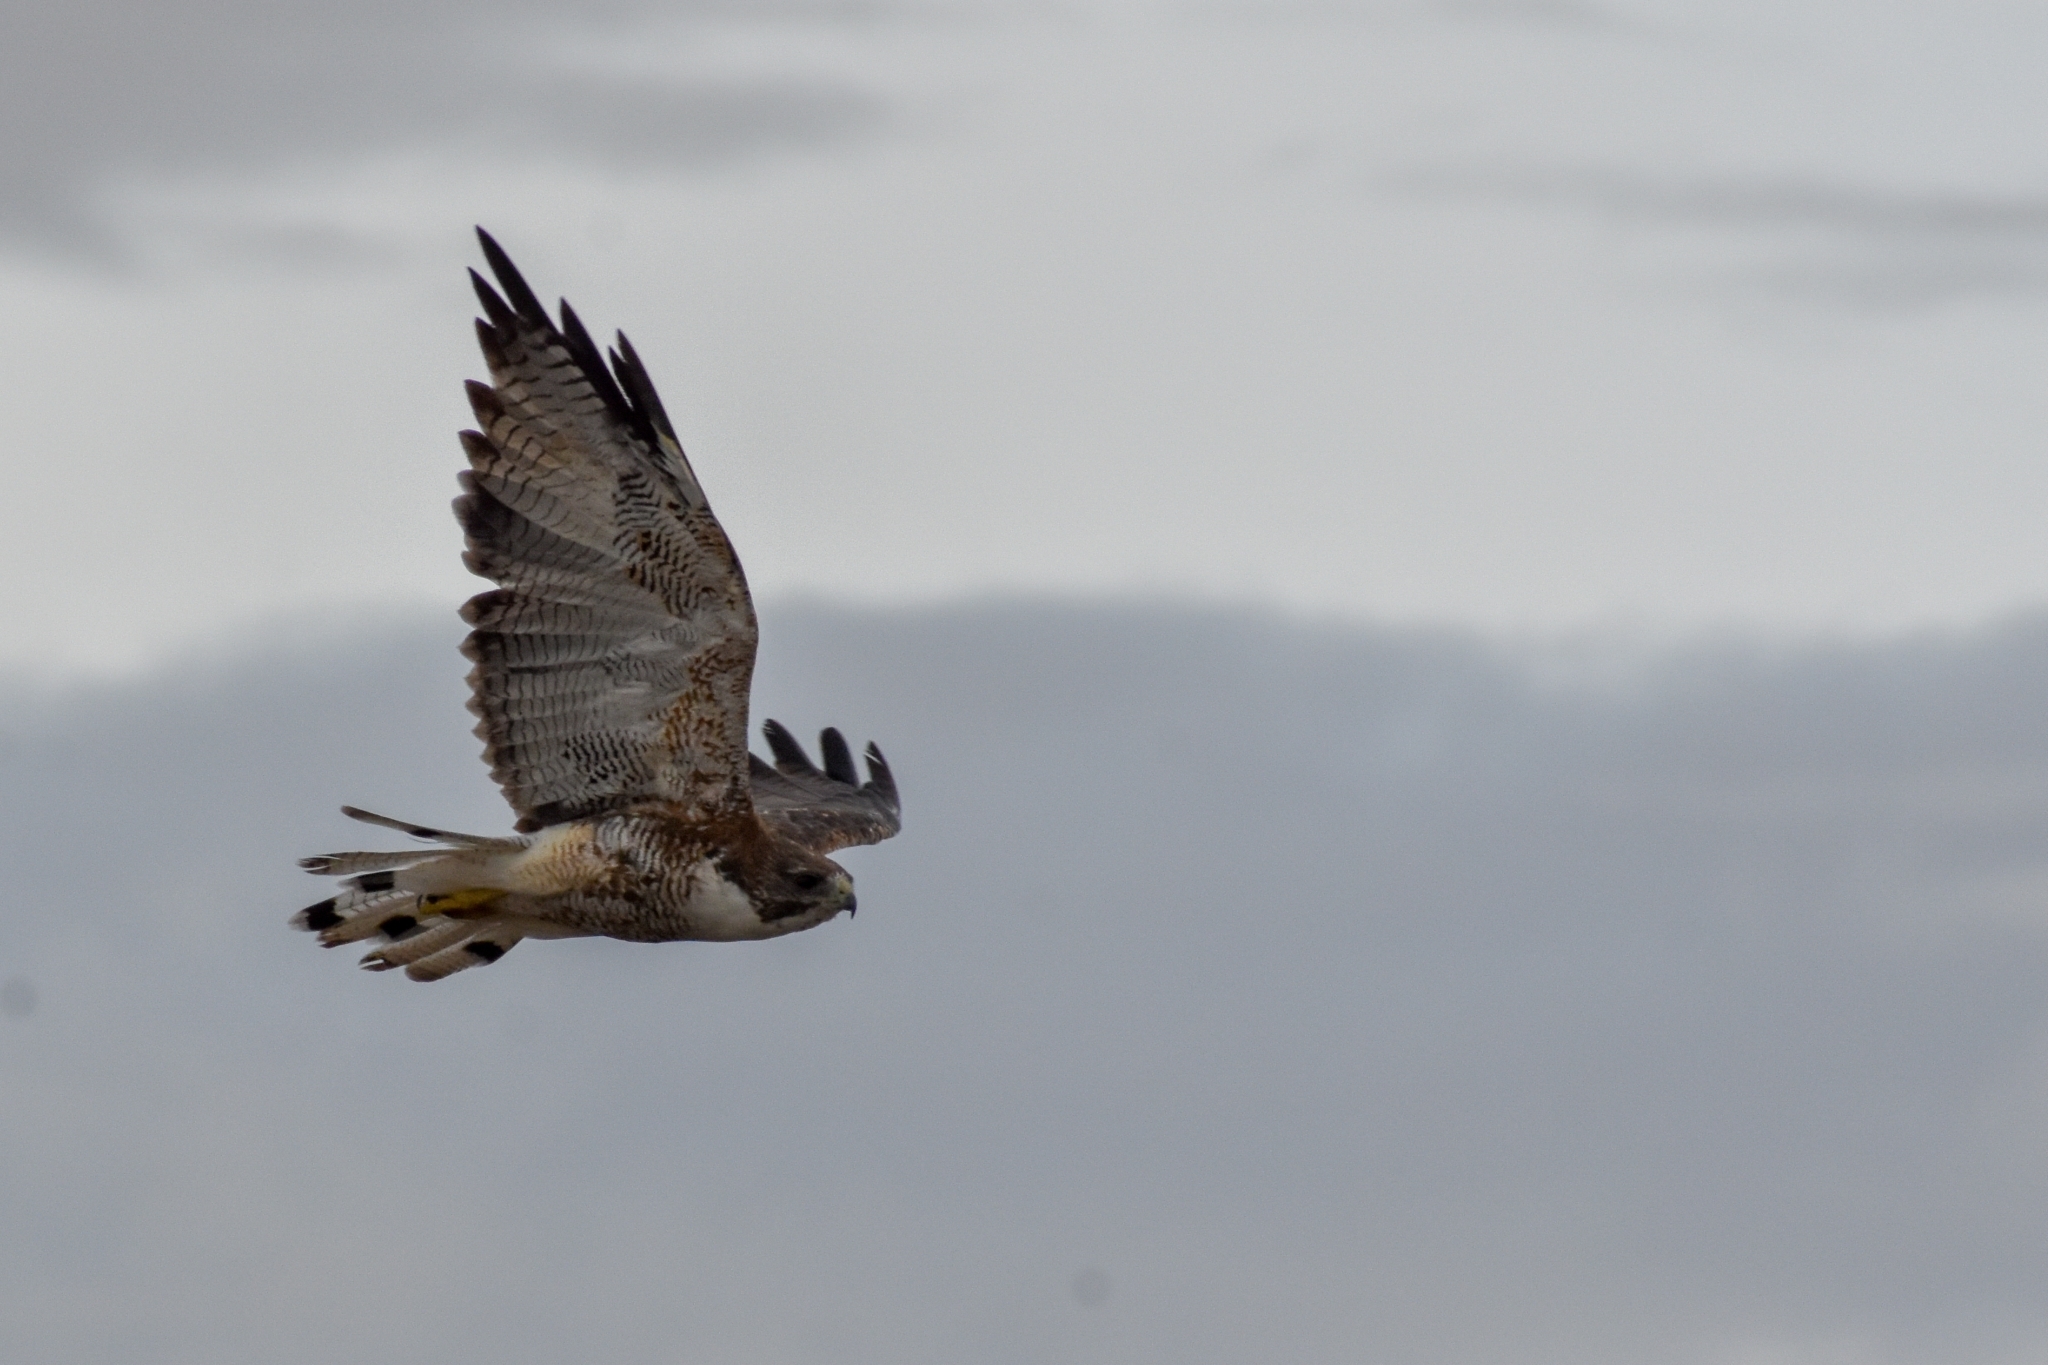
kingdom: Animalia
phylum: Chordata
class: Aves
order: Accipitriformes
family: Accipitridae
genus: Buteo
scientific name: Buteo polyosoma
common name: Variable hawk
